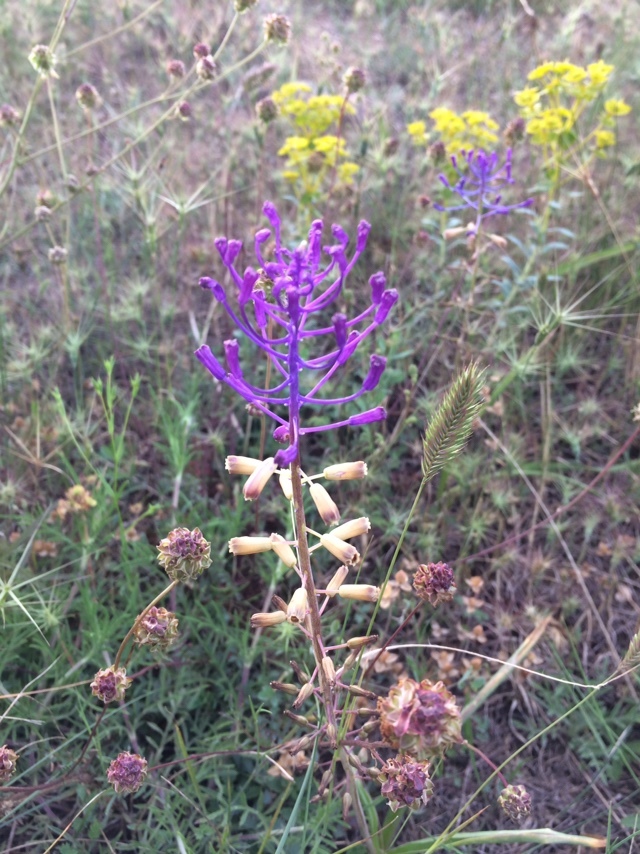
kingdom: Plantae
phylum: Tracheophyta
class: Liliopsida
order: Asparagales
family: Asparagaceae
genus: Muscari
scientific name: Muscari comosum
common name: Tassel hyacinth
